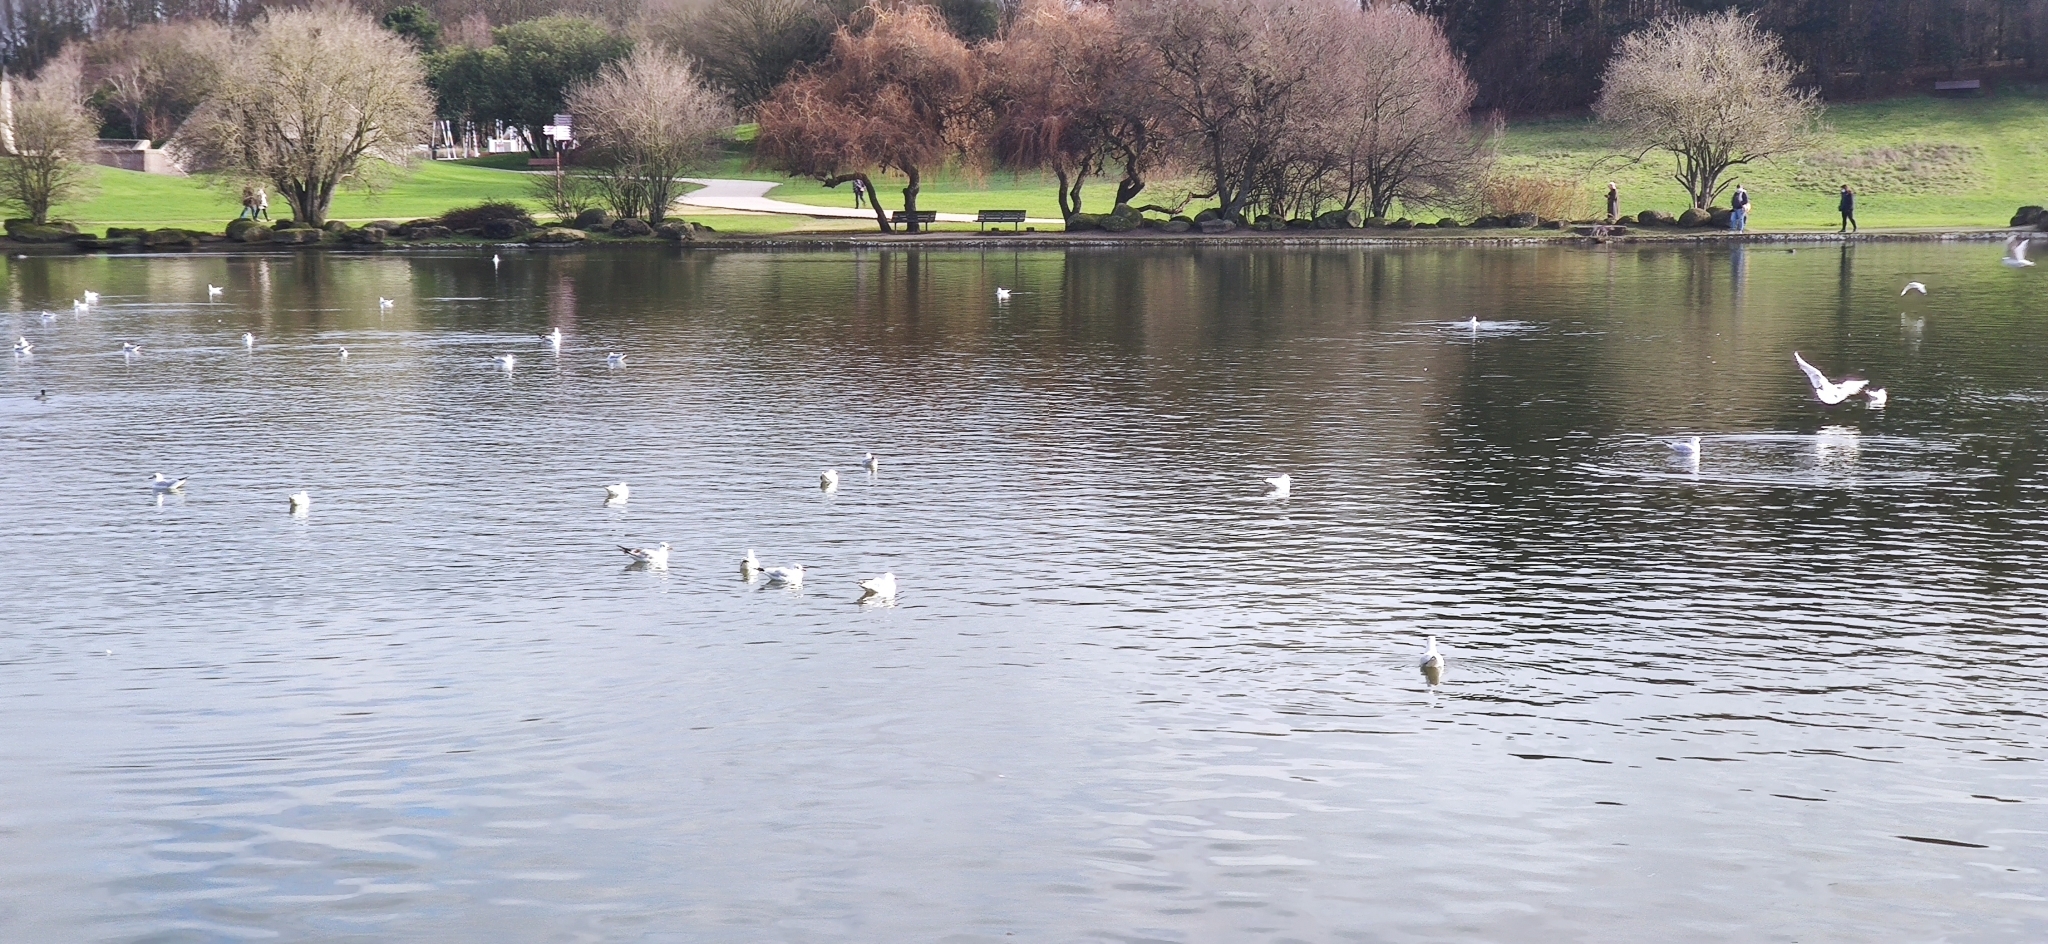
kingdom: Animalia
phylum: Chordata
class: Aves
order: Charadriiformes
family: Laridae
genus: Chroicocephalus
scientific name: Chroicocephalus ridibundus
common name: Black-headed gull
